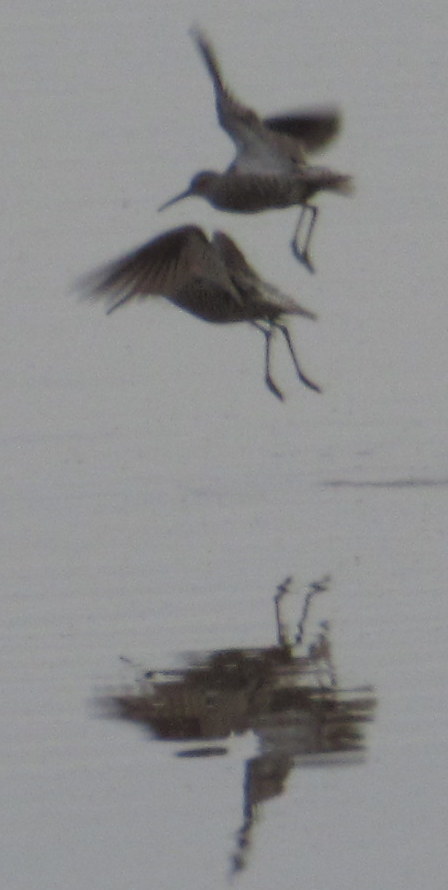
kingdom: Animalia
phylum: Chordata
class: Aves
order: Charadriiformes
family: Charadriidae
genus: Charadrius
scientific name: Charadrius vociferus
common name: Killdeer
